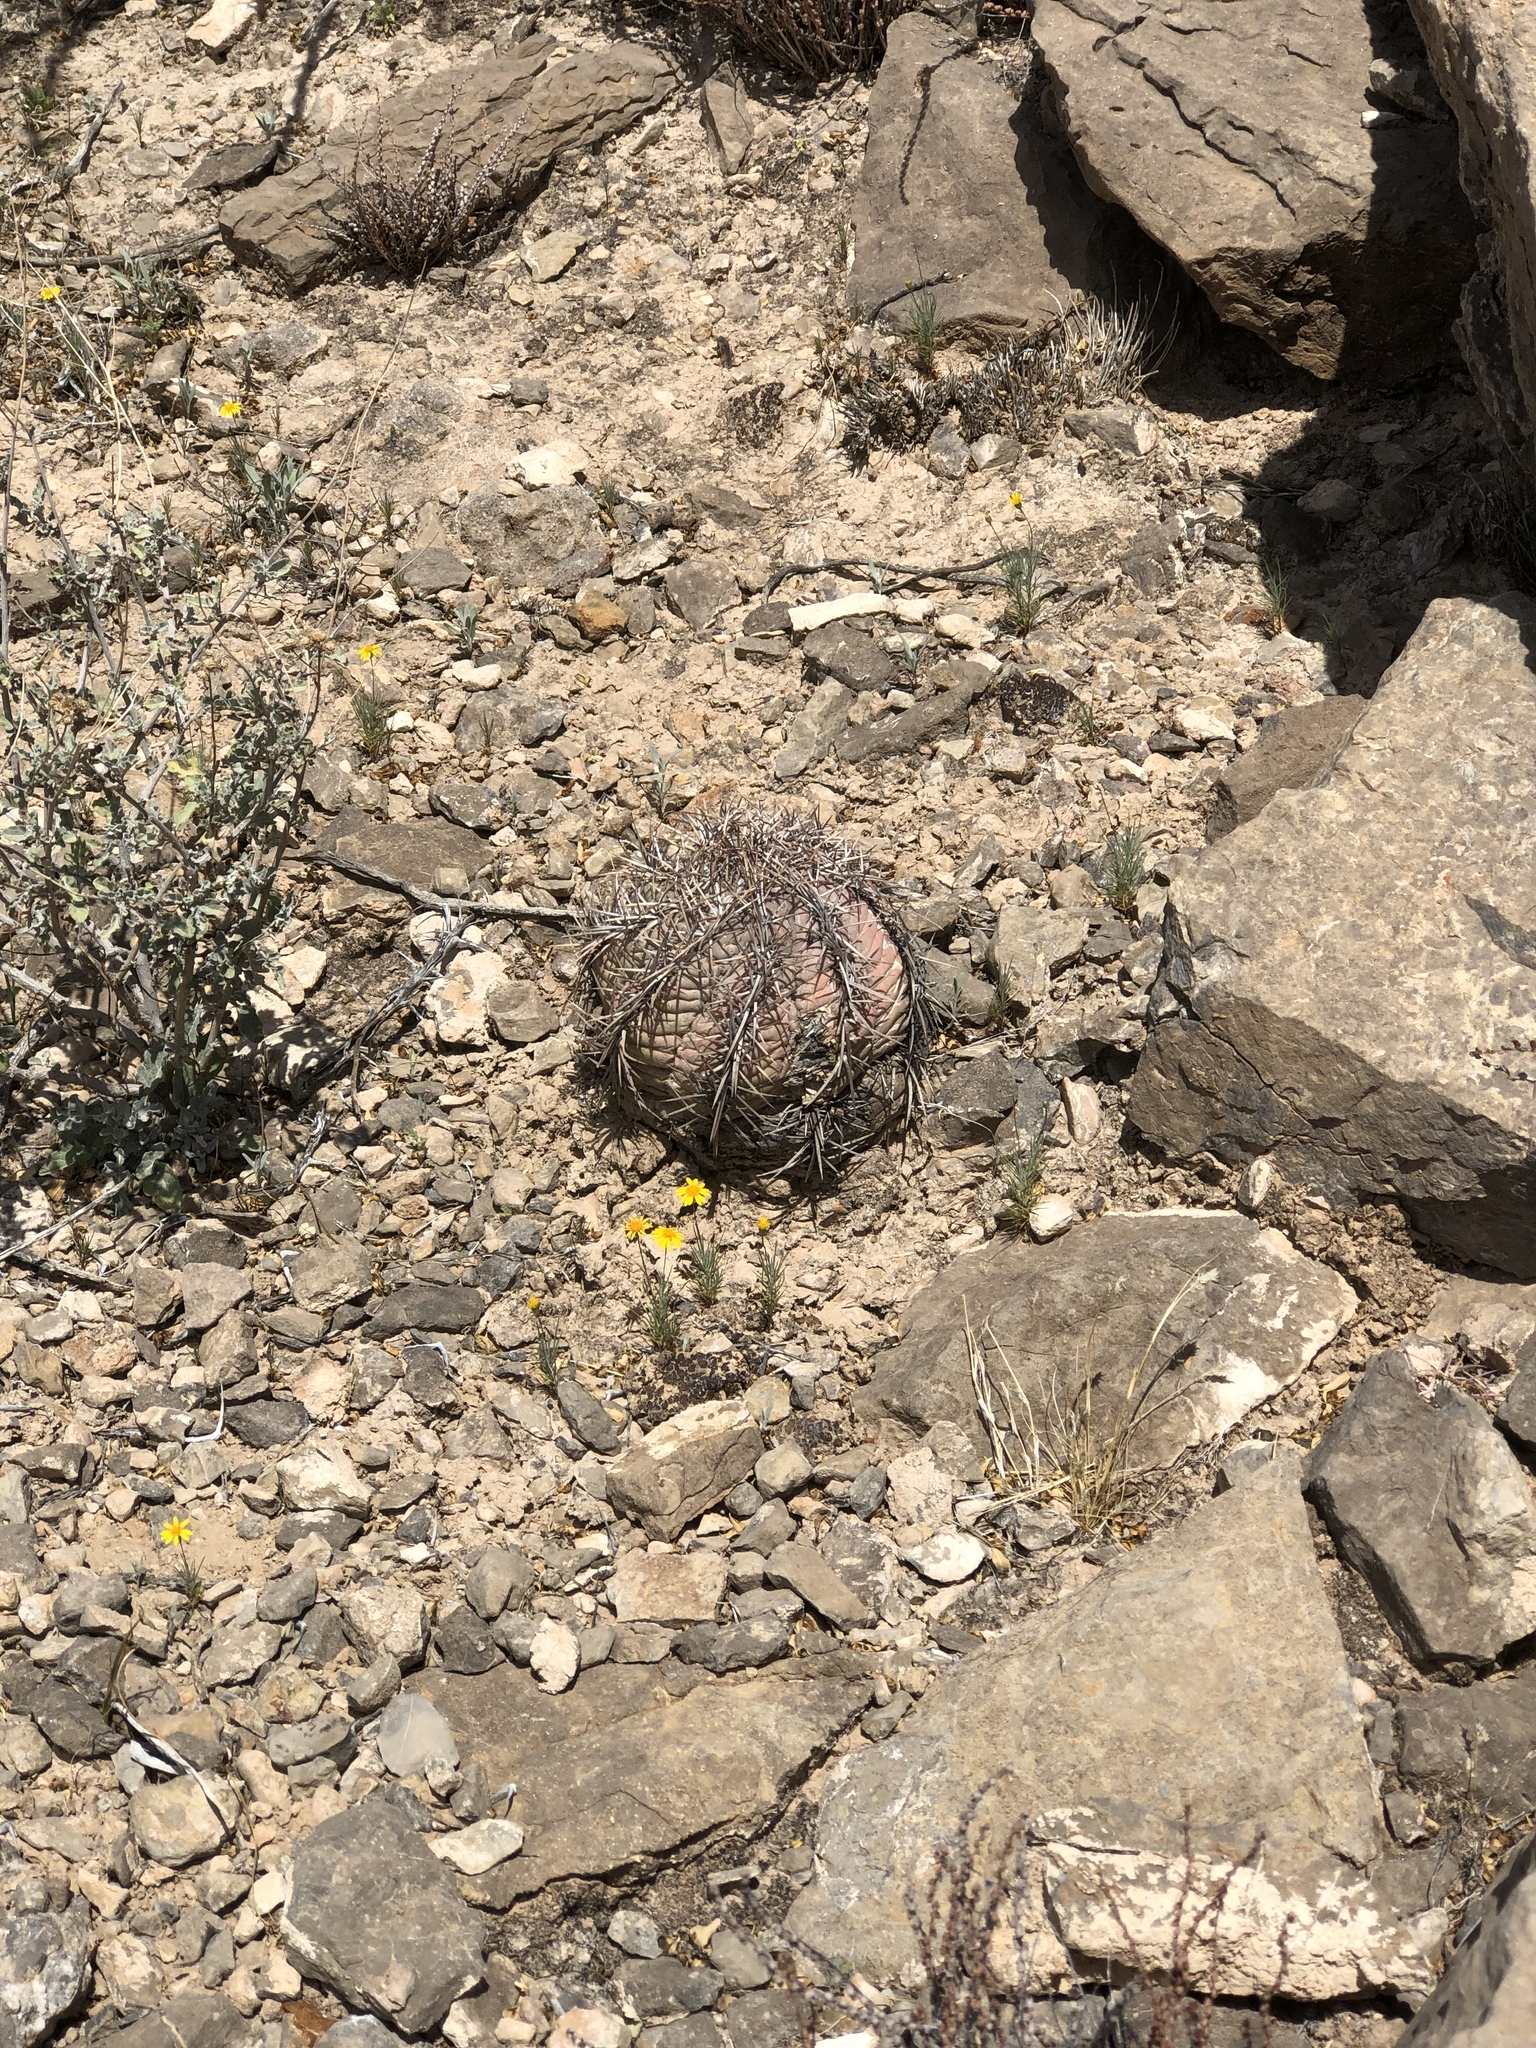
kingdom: Plantae
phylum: Tracheophyta
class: Magnoliopsida
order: Caryophyllales
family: Cactaceae
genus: Echinocactus
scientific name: Echinocactus horizonthalonius
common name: Devilshead
